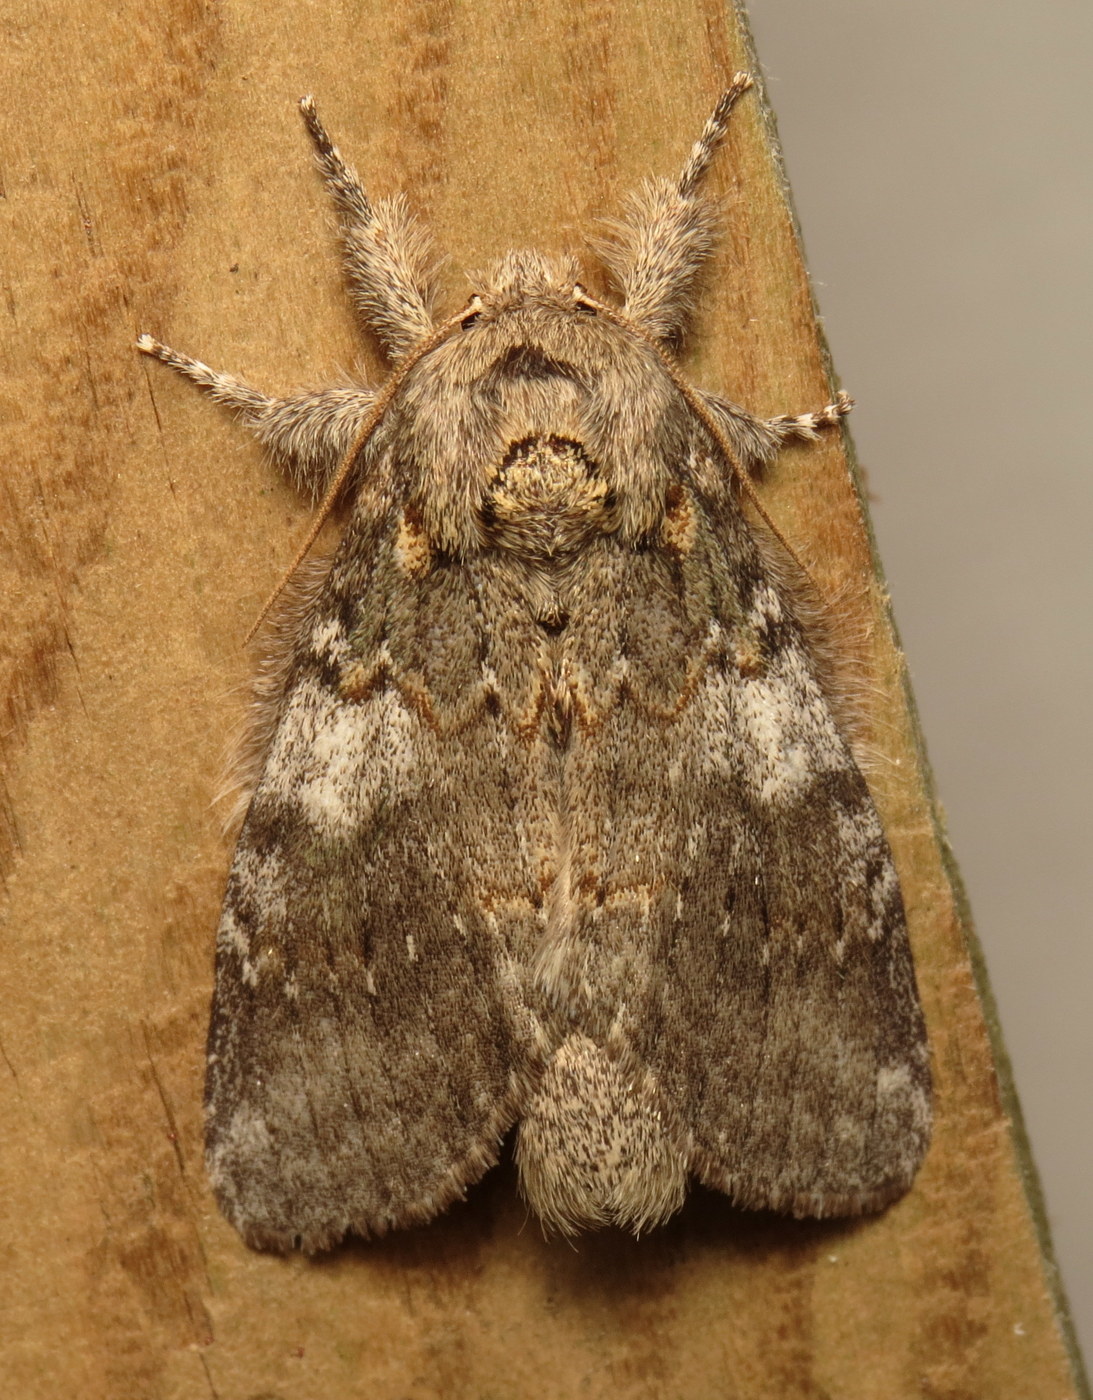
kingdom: Animalia
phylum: Arthropoda
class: Insecta
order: Lepidoptera
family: Notodontidae
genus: Peridea
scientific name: Peridea angulosa
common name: Angulose prominent
